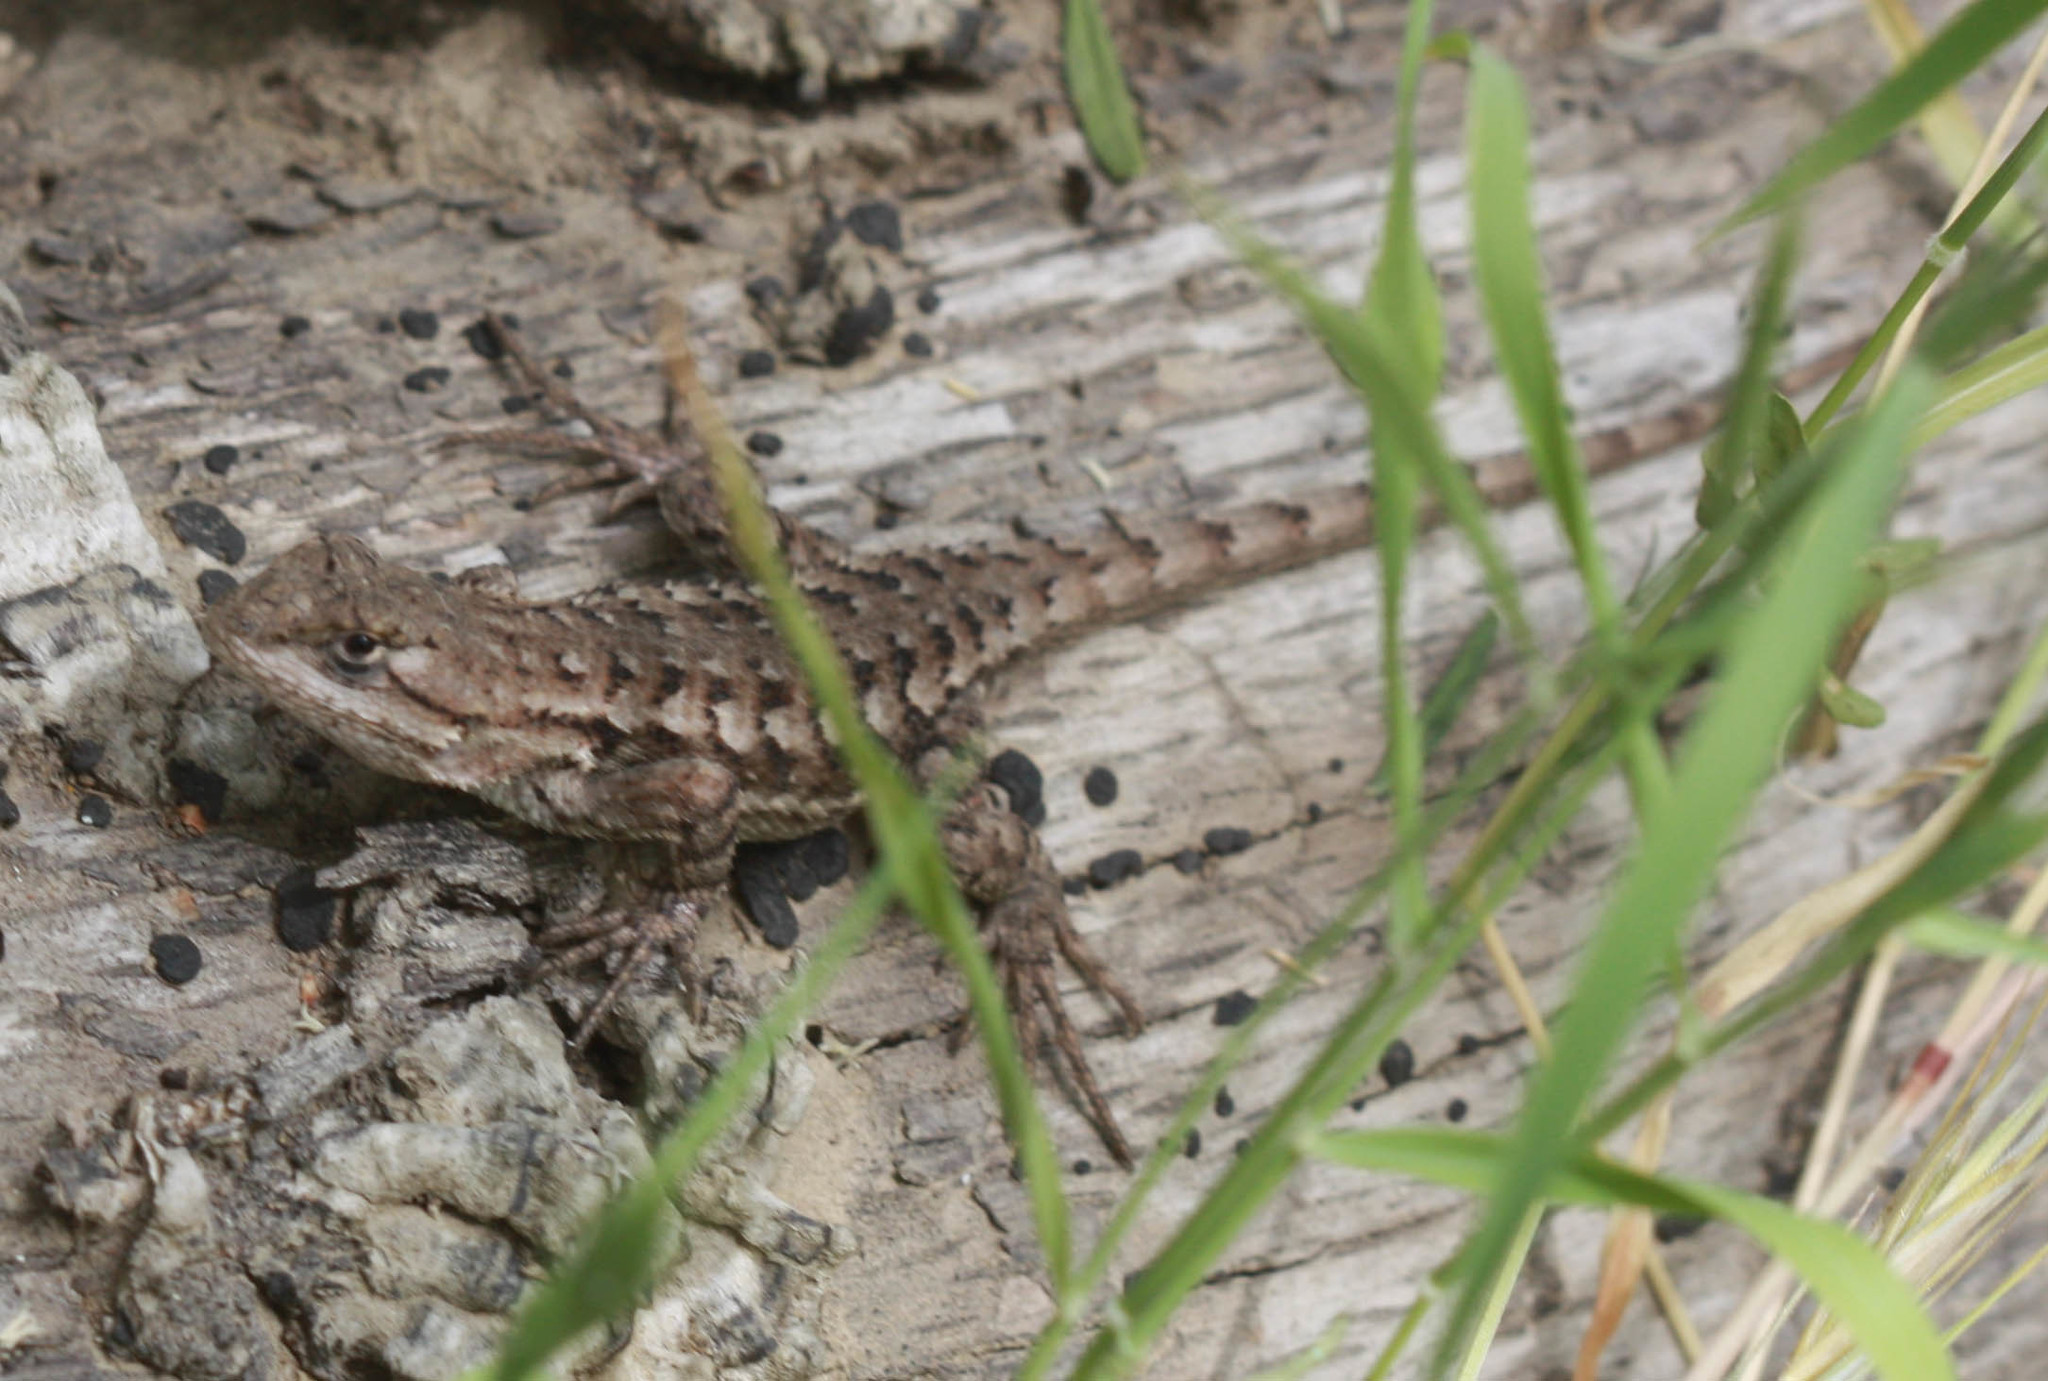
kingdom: Animalia
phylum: Chordata
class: Squamata
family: Phrynosomatidae
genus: Sceloporus
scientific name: Sceloporus occidentalis
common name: Western fence lizard
